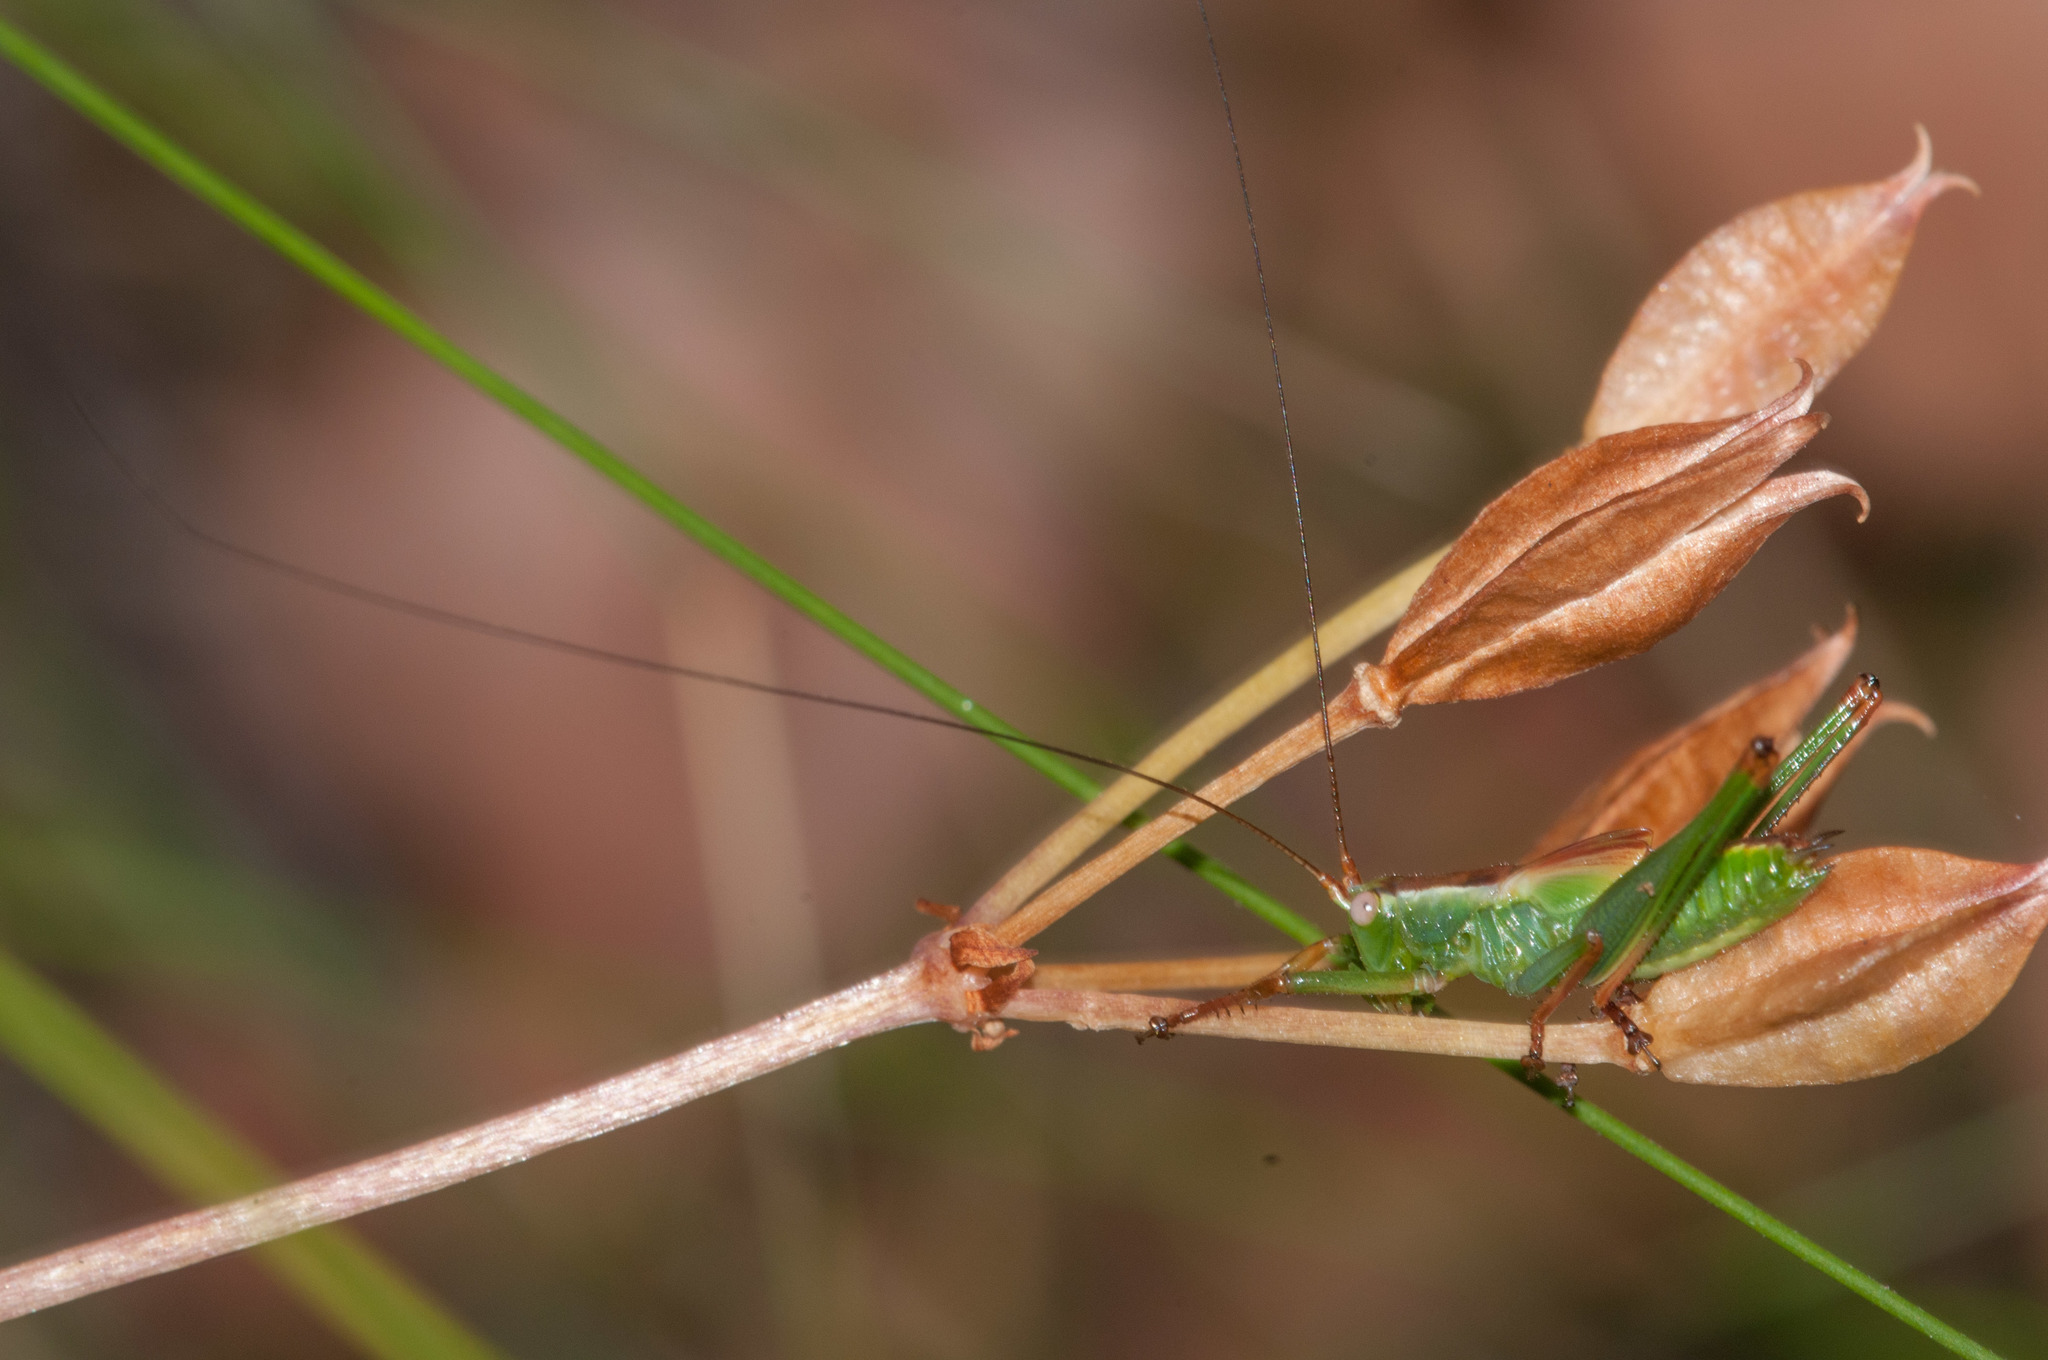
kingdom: Animalia
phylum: Arthropoda
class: Insecta
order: Orthoptera
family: Tettigoniidae
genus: Conocephalomima
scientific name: Conocephalomima barameda
